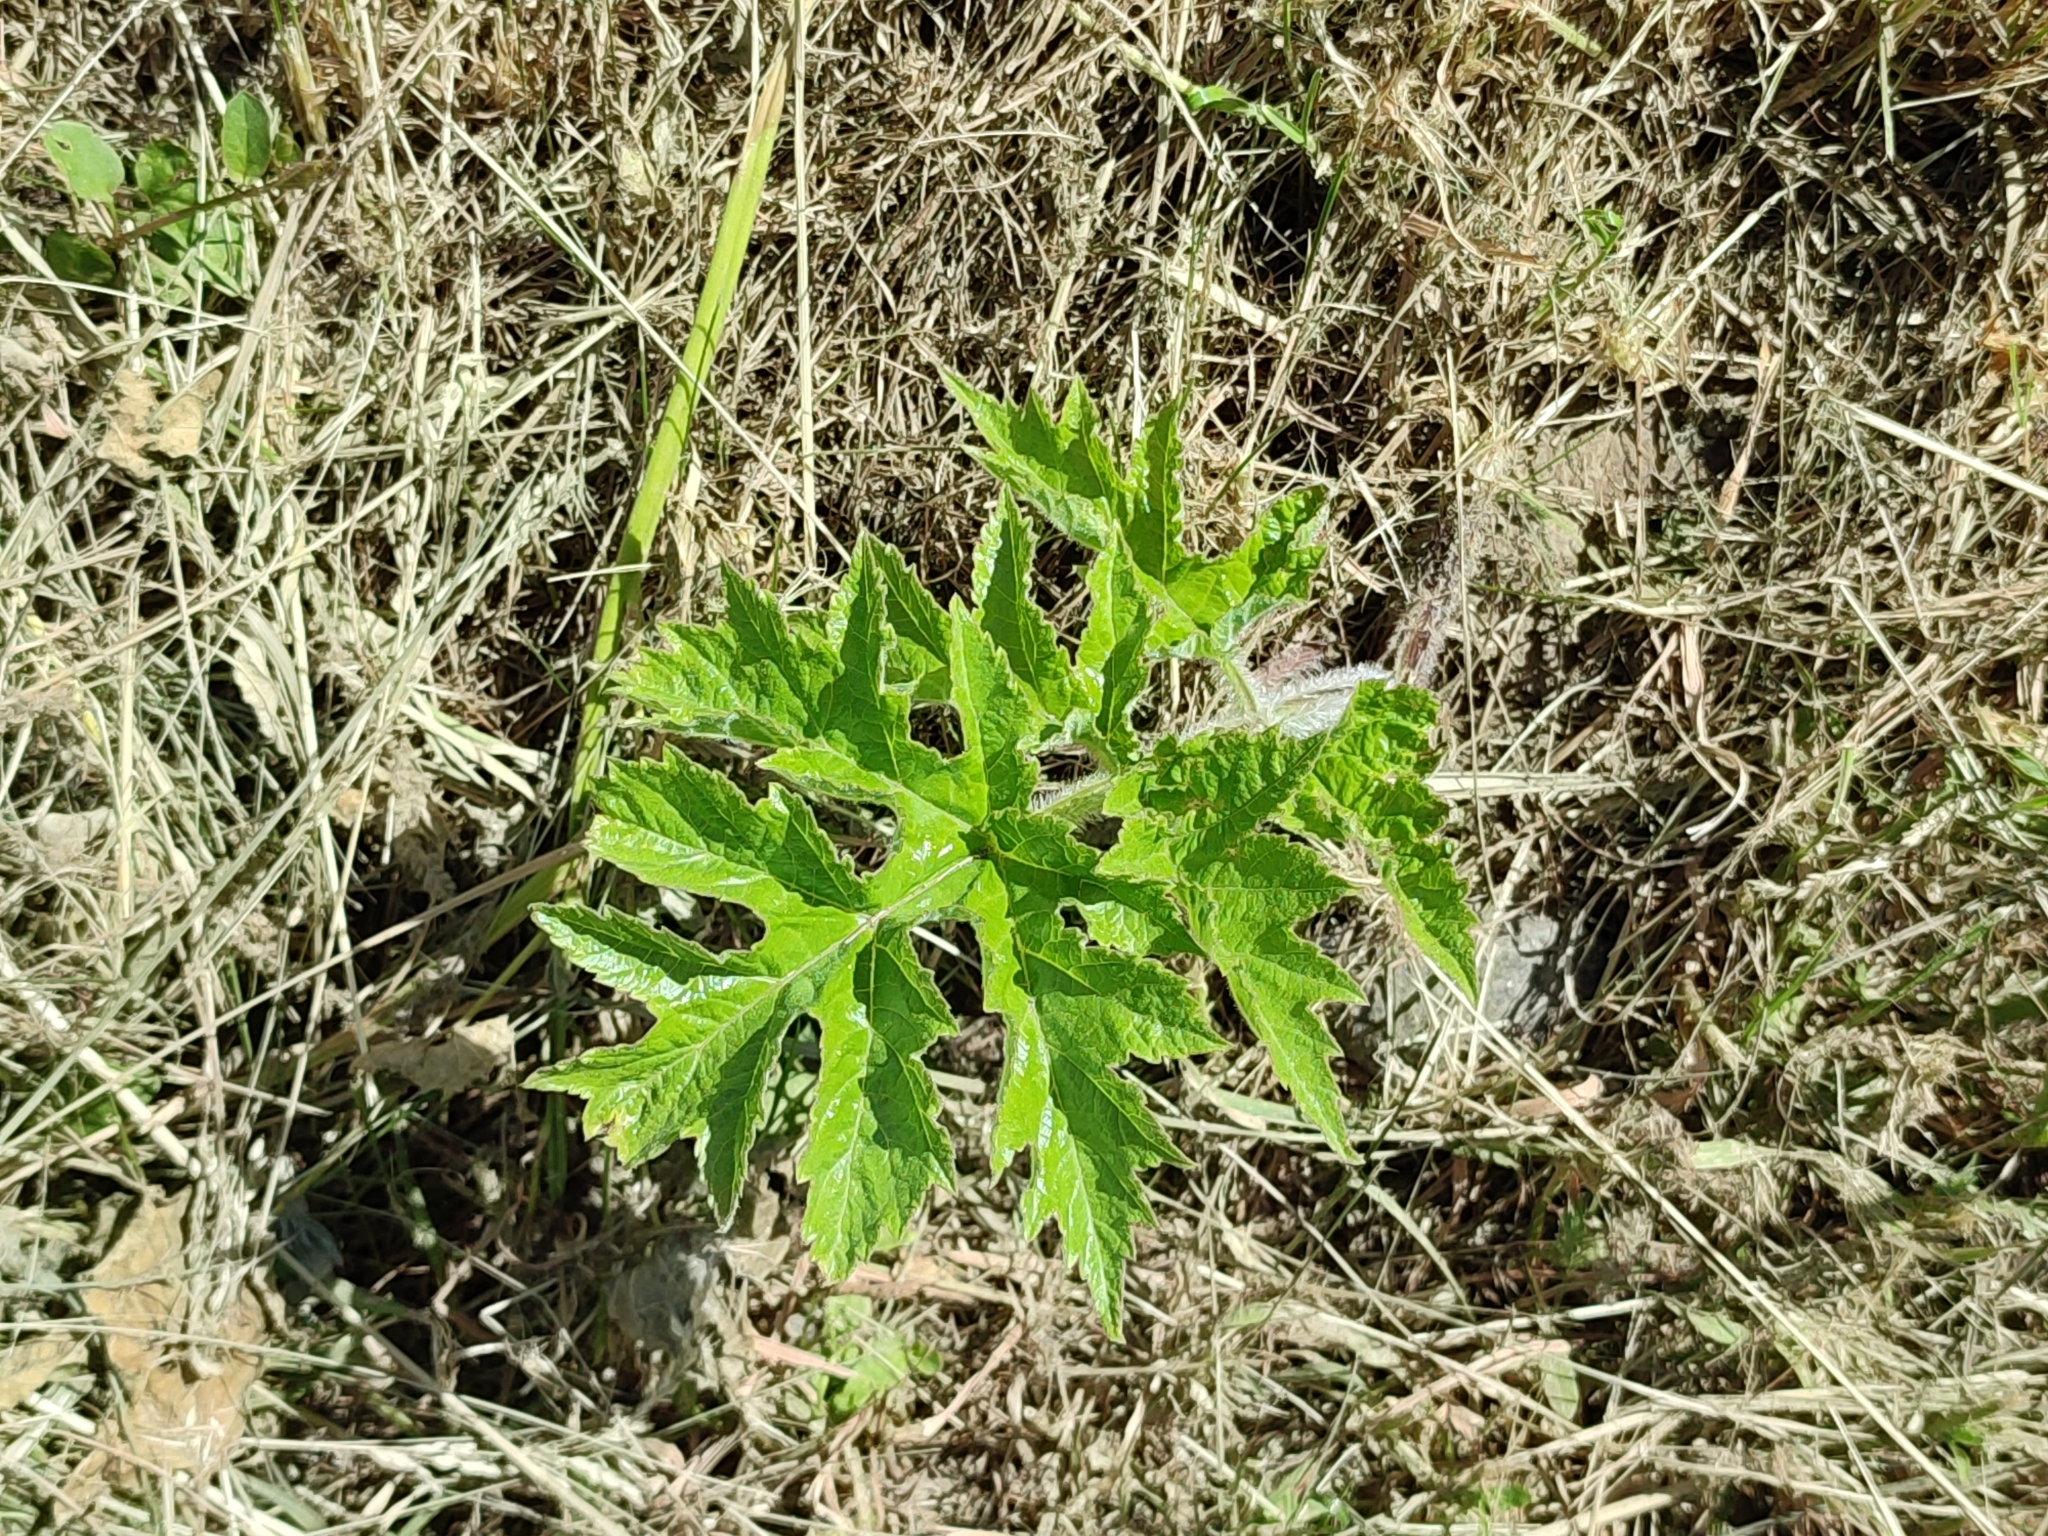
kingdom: Plantae
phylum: Tracheophyta
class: Magnoliopsida
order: Apiales
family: Apiaceae
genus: Heracleum
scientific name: Heracleum sphondylium
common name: Hogweed
